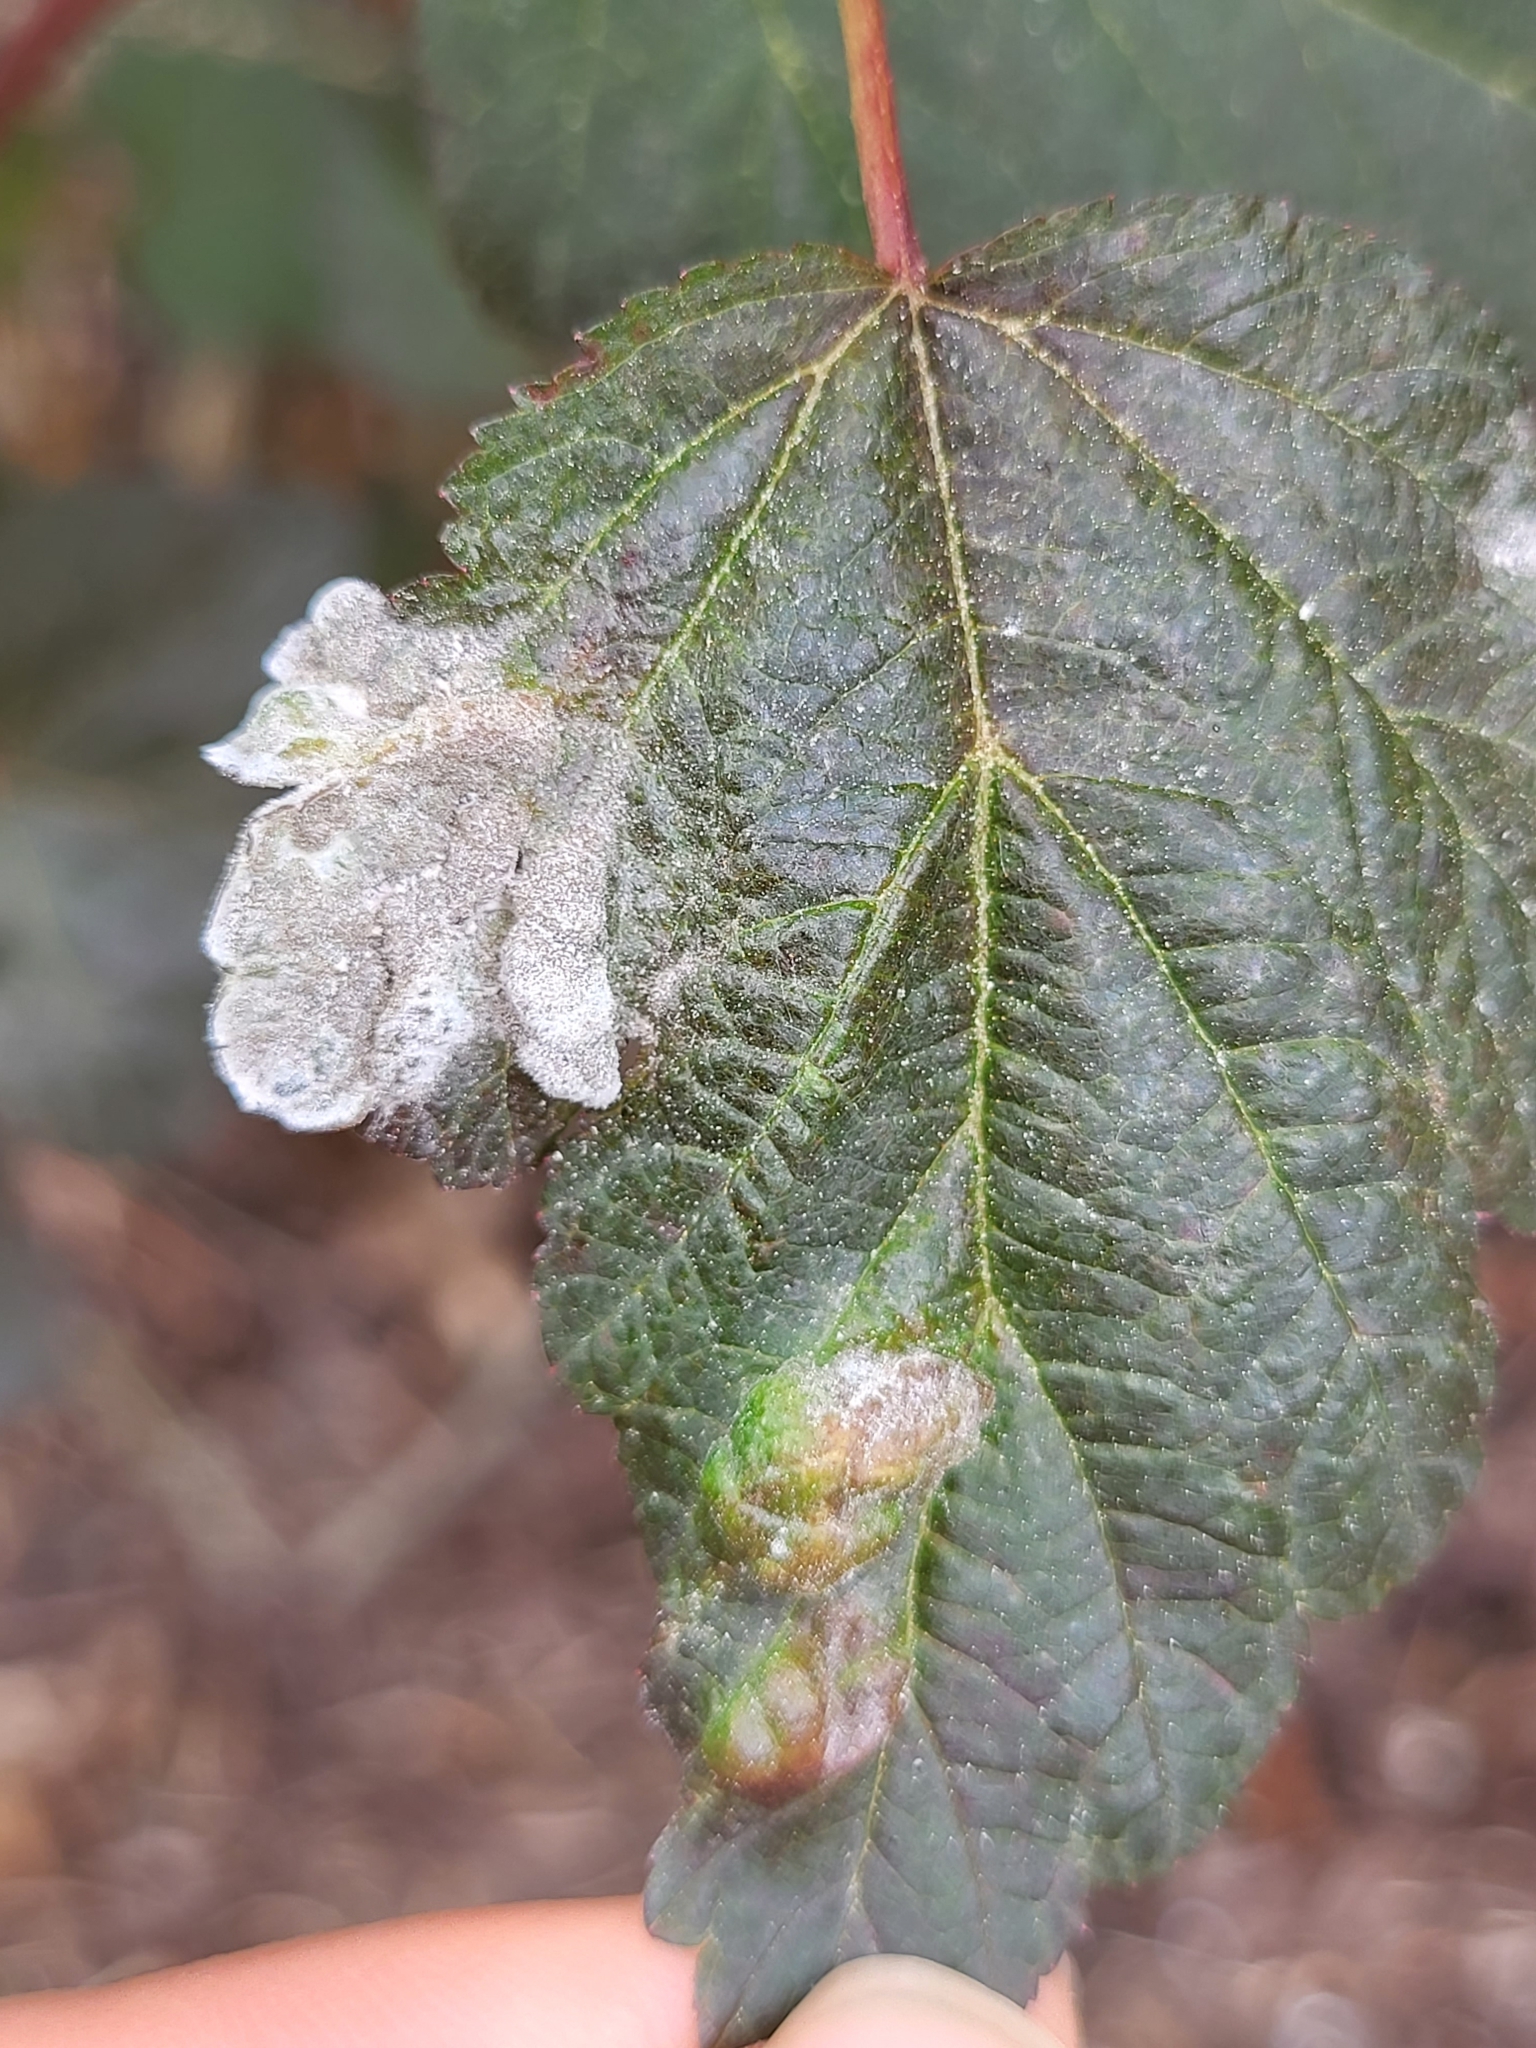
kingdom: Fungi
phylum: Ascomycota
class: Leotiomycetes
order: Helotiales
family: Erysiphaceae
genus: Podosphaera
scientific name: Podosphaera physocarpi
